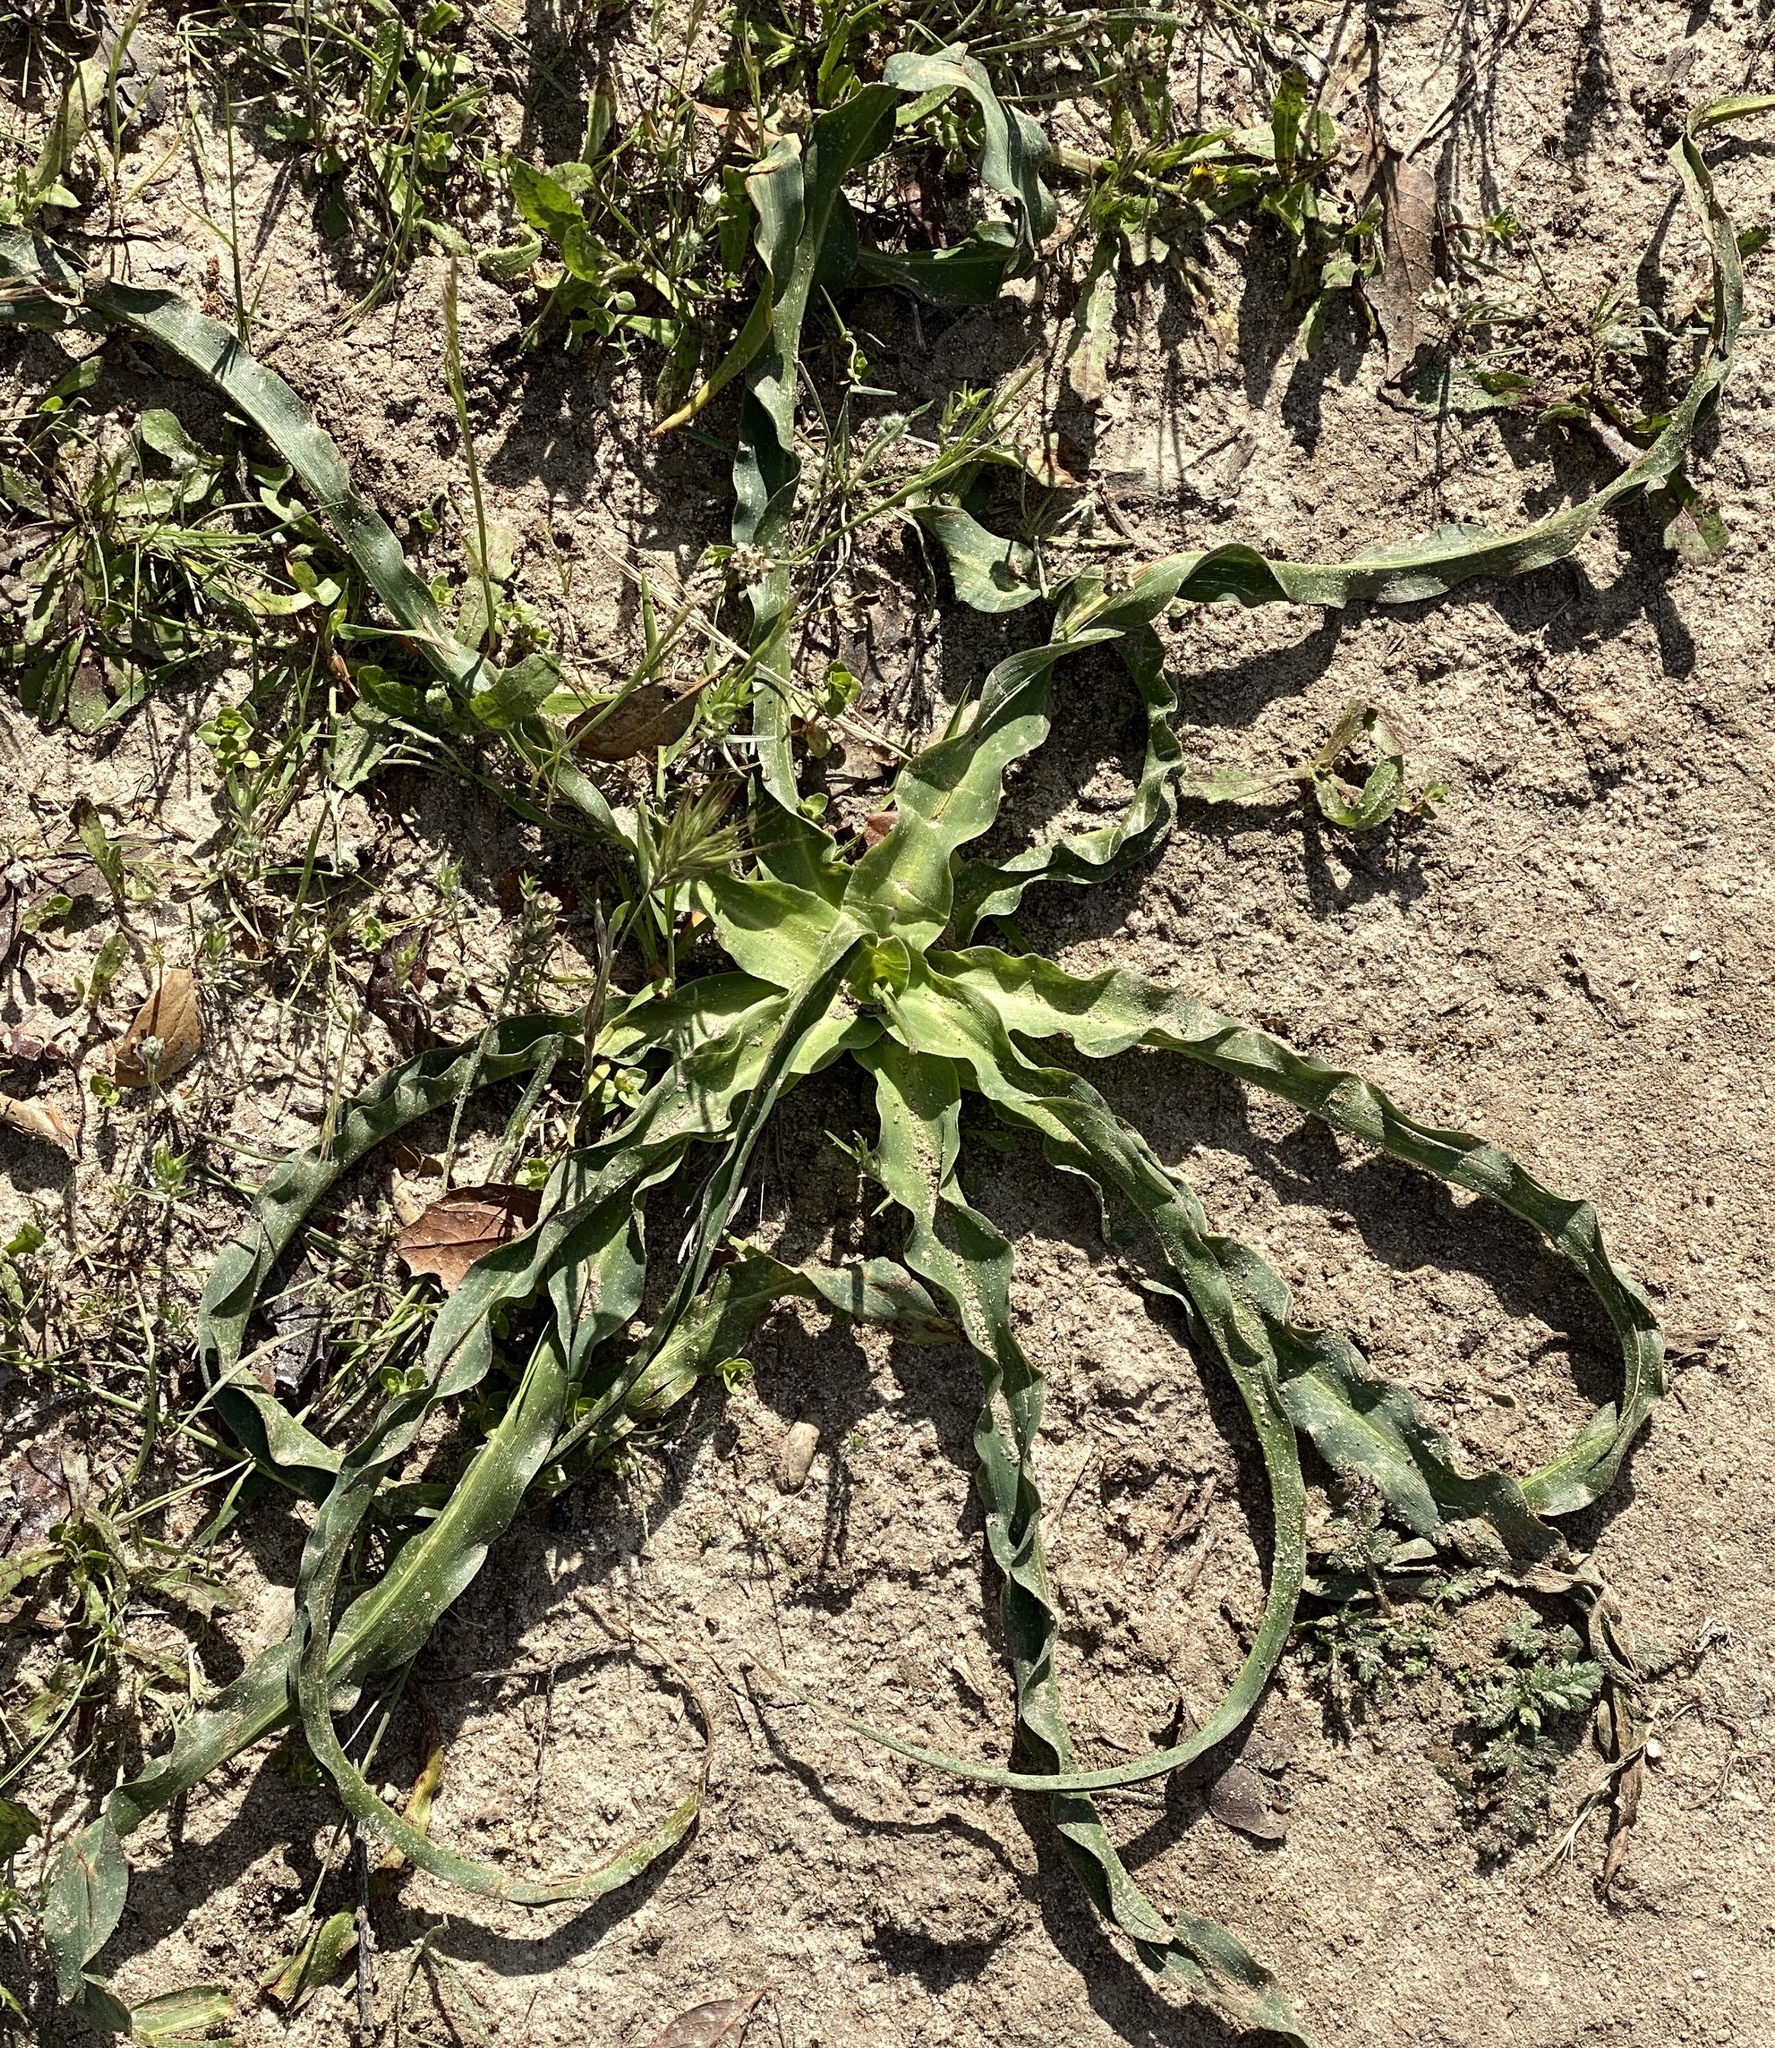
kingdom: Plantae
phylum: Tracheophyta
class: Liliopsida
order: Asparagales
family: Asparagaceae
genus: Chlorogalum
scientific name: Chlorogalum pomeridianum
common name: Amole
